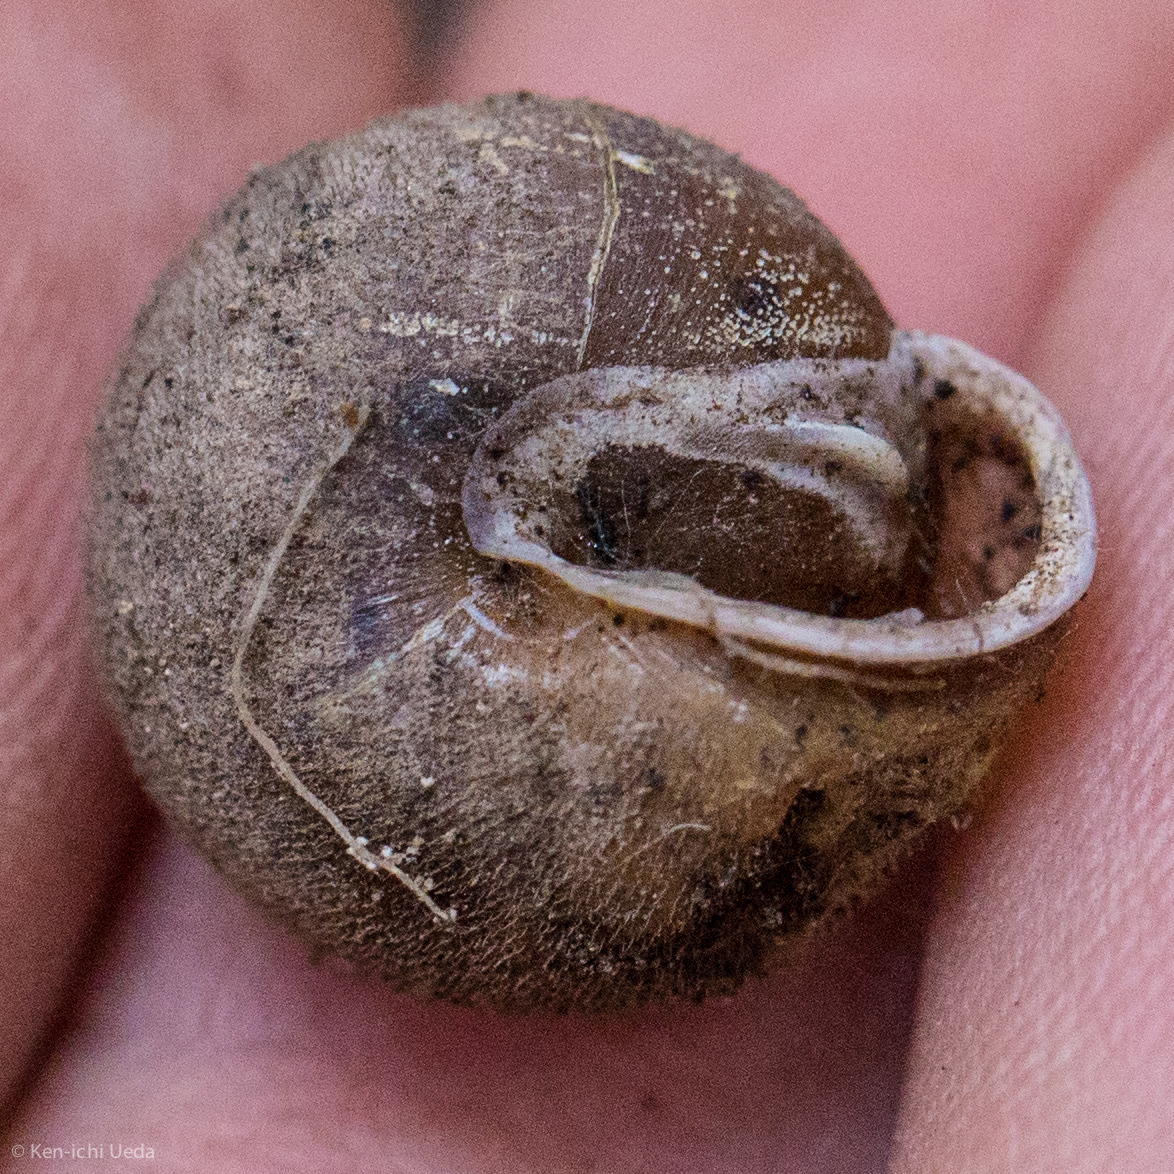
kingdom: Animalia
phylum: Mollusca
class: Gastropoda
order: Stylommatophora
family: Polygyridae
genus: Vespericola
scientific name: Vespericola armiger
